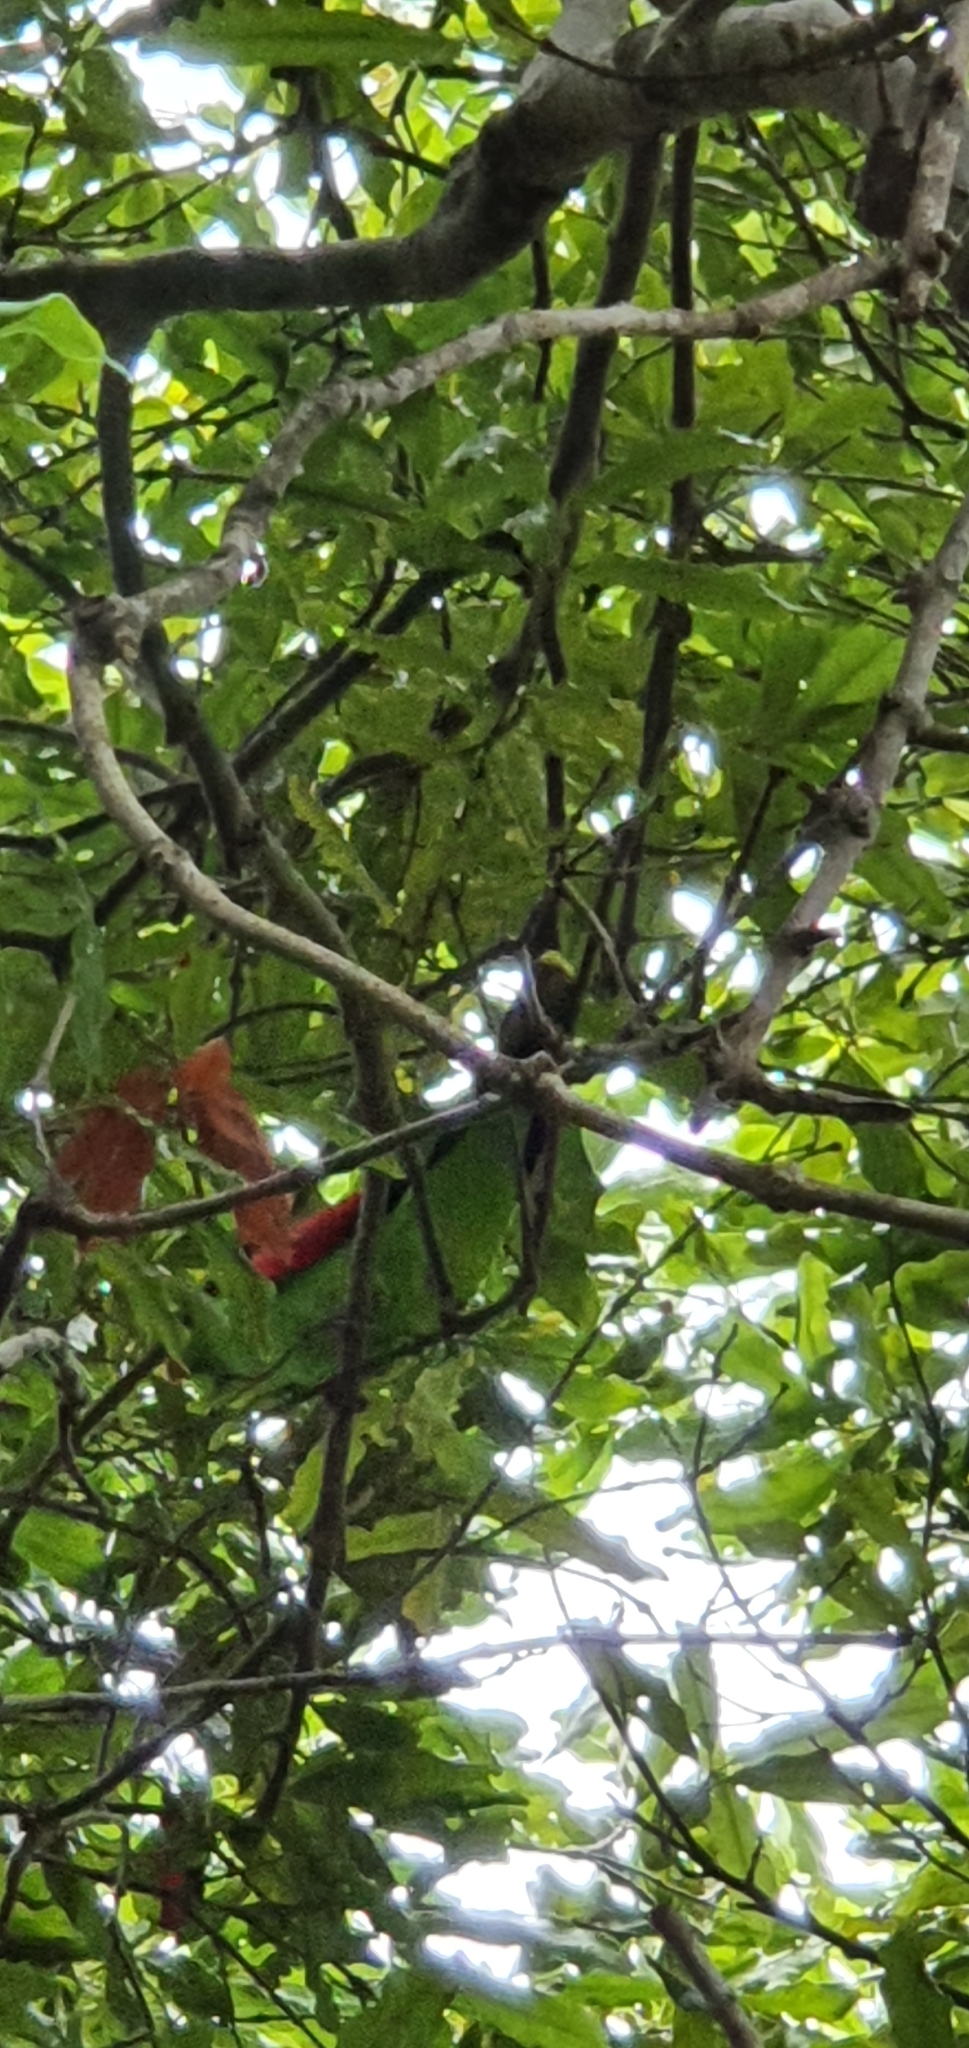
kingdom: Animalia
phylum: Chordata
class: Aves
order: Psittaciformes
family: Psittacidae
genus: Aprosmictus
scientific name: Aprosmictus erythropterus
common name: Red-winged parrot
